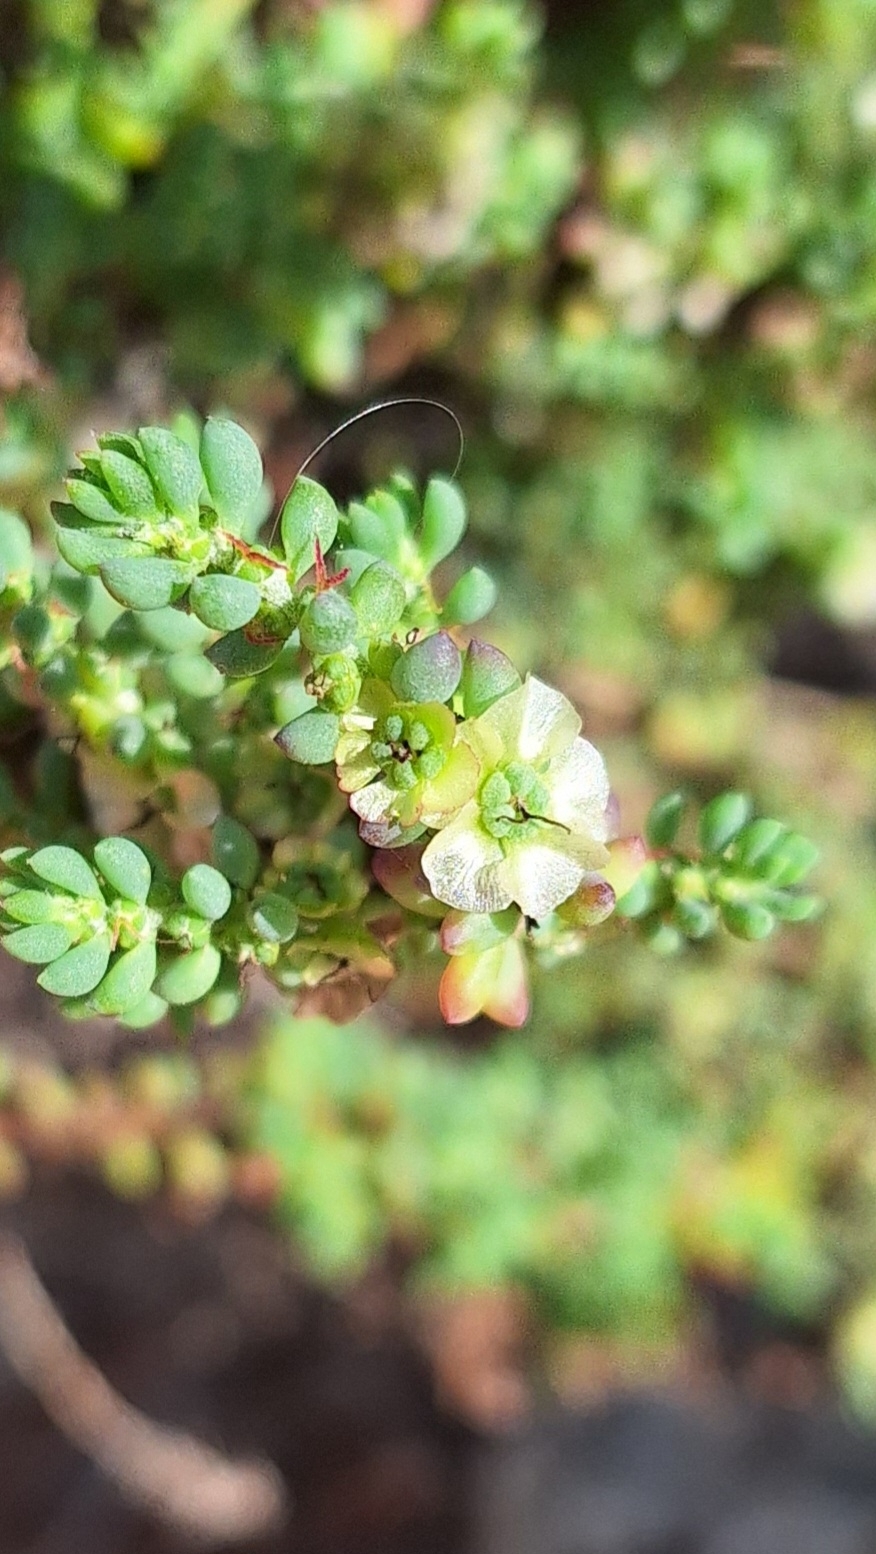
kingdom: Plantae
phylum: Tracheophyta
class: Magnoliopsida
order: Caryophyllales
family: Amaranthaceae
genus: Maireana
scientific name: Maireana brevifolia
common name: Eastern cottonbush
